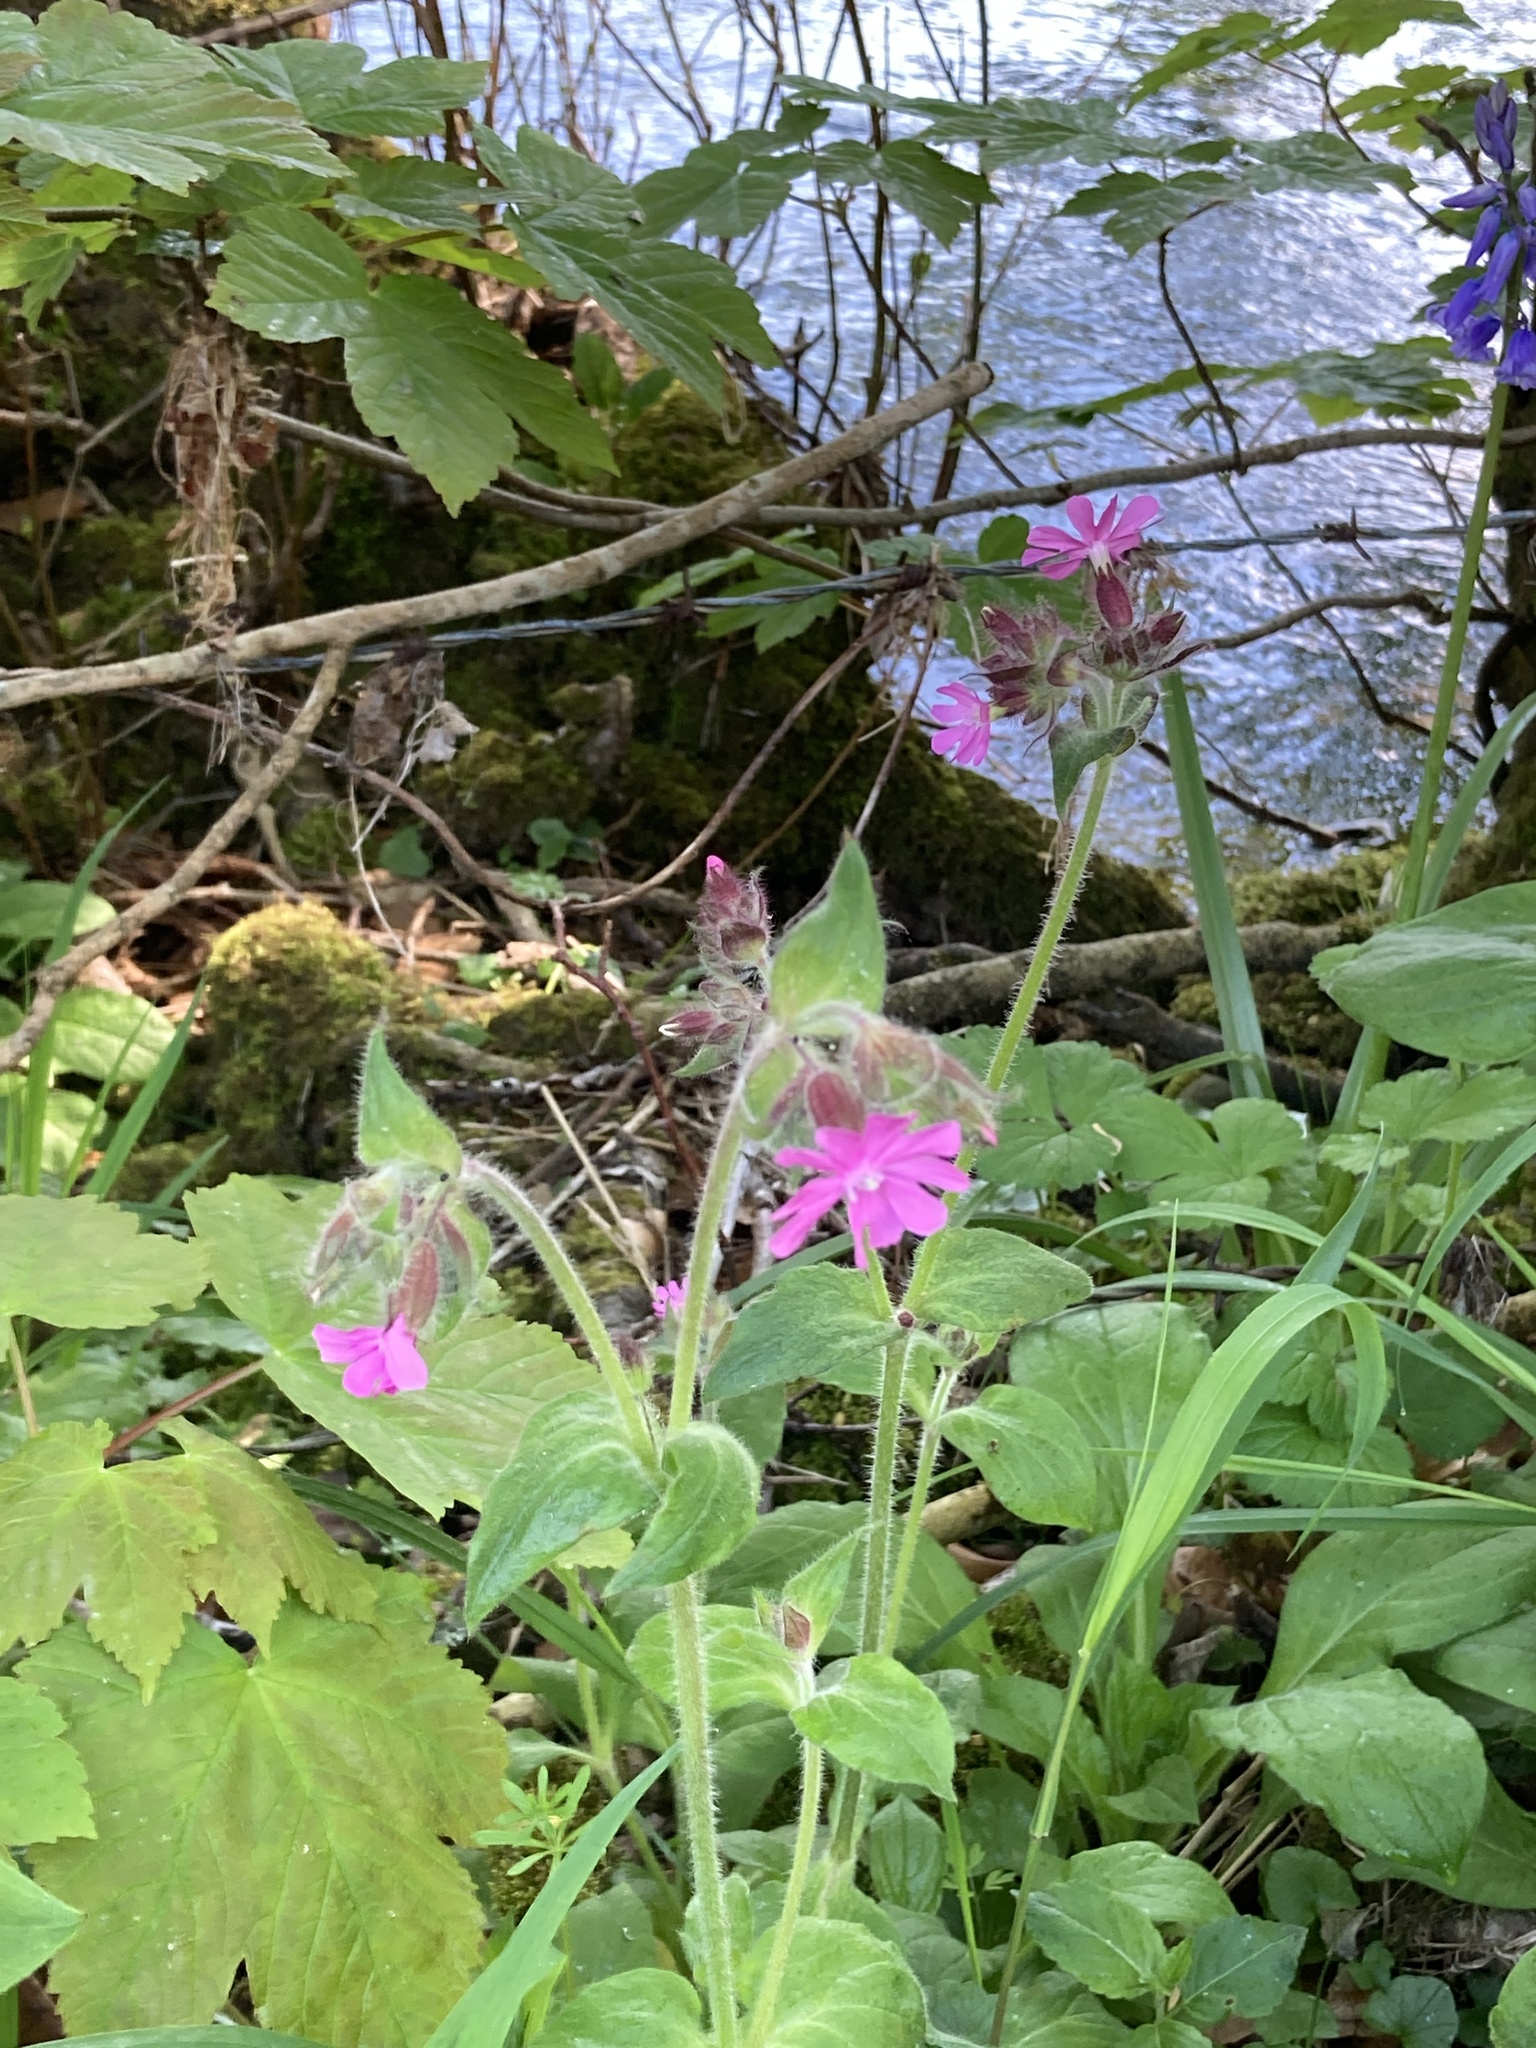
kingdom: Plantae
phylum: Tracheophyta
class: Magnoliopsida
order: Caryophyllales
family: Caryophyllaceae
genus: Silene
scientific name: Silene dioica
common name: Red campion
